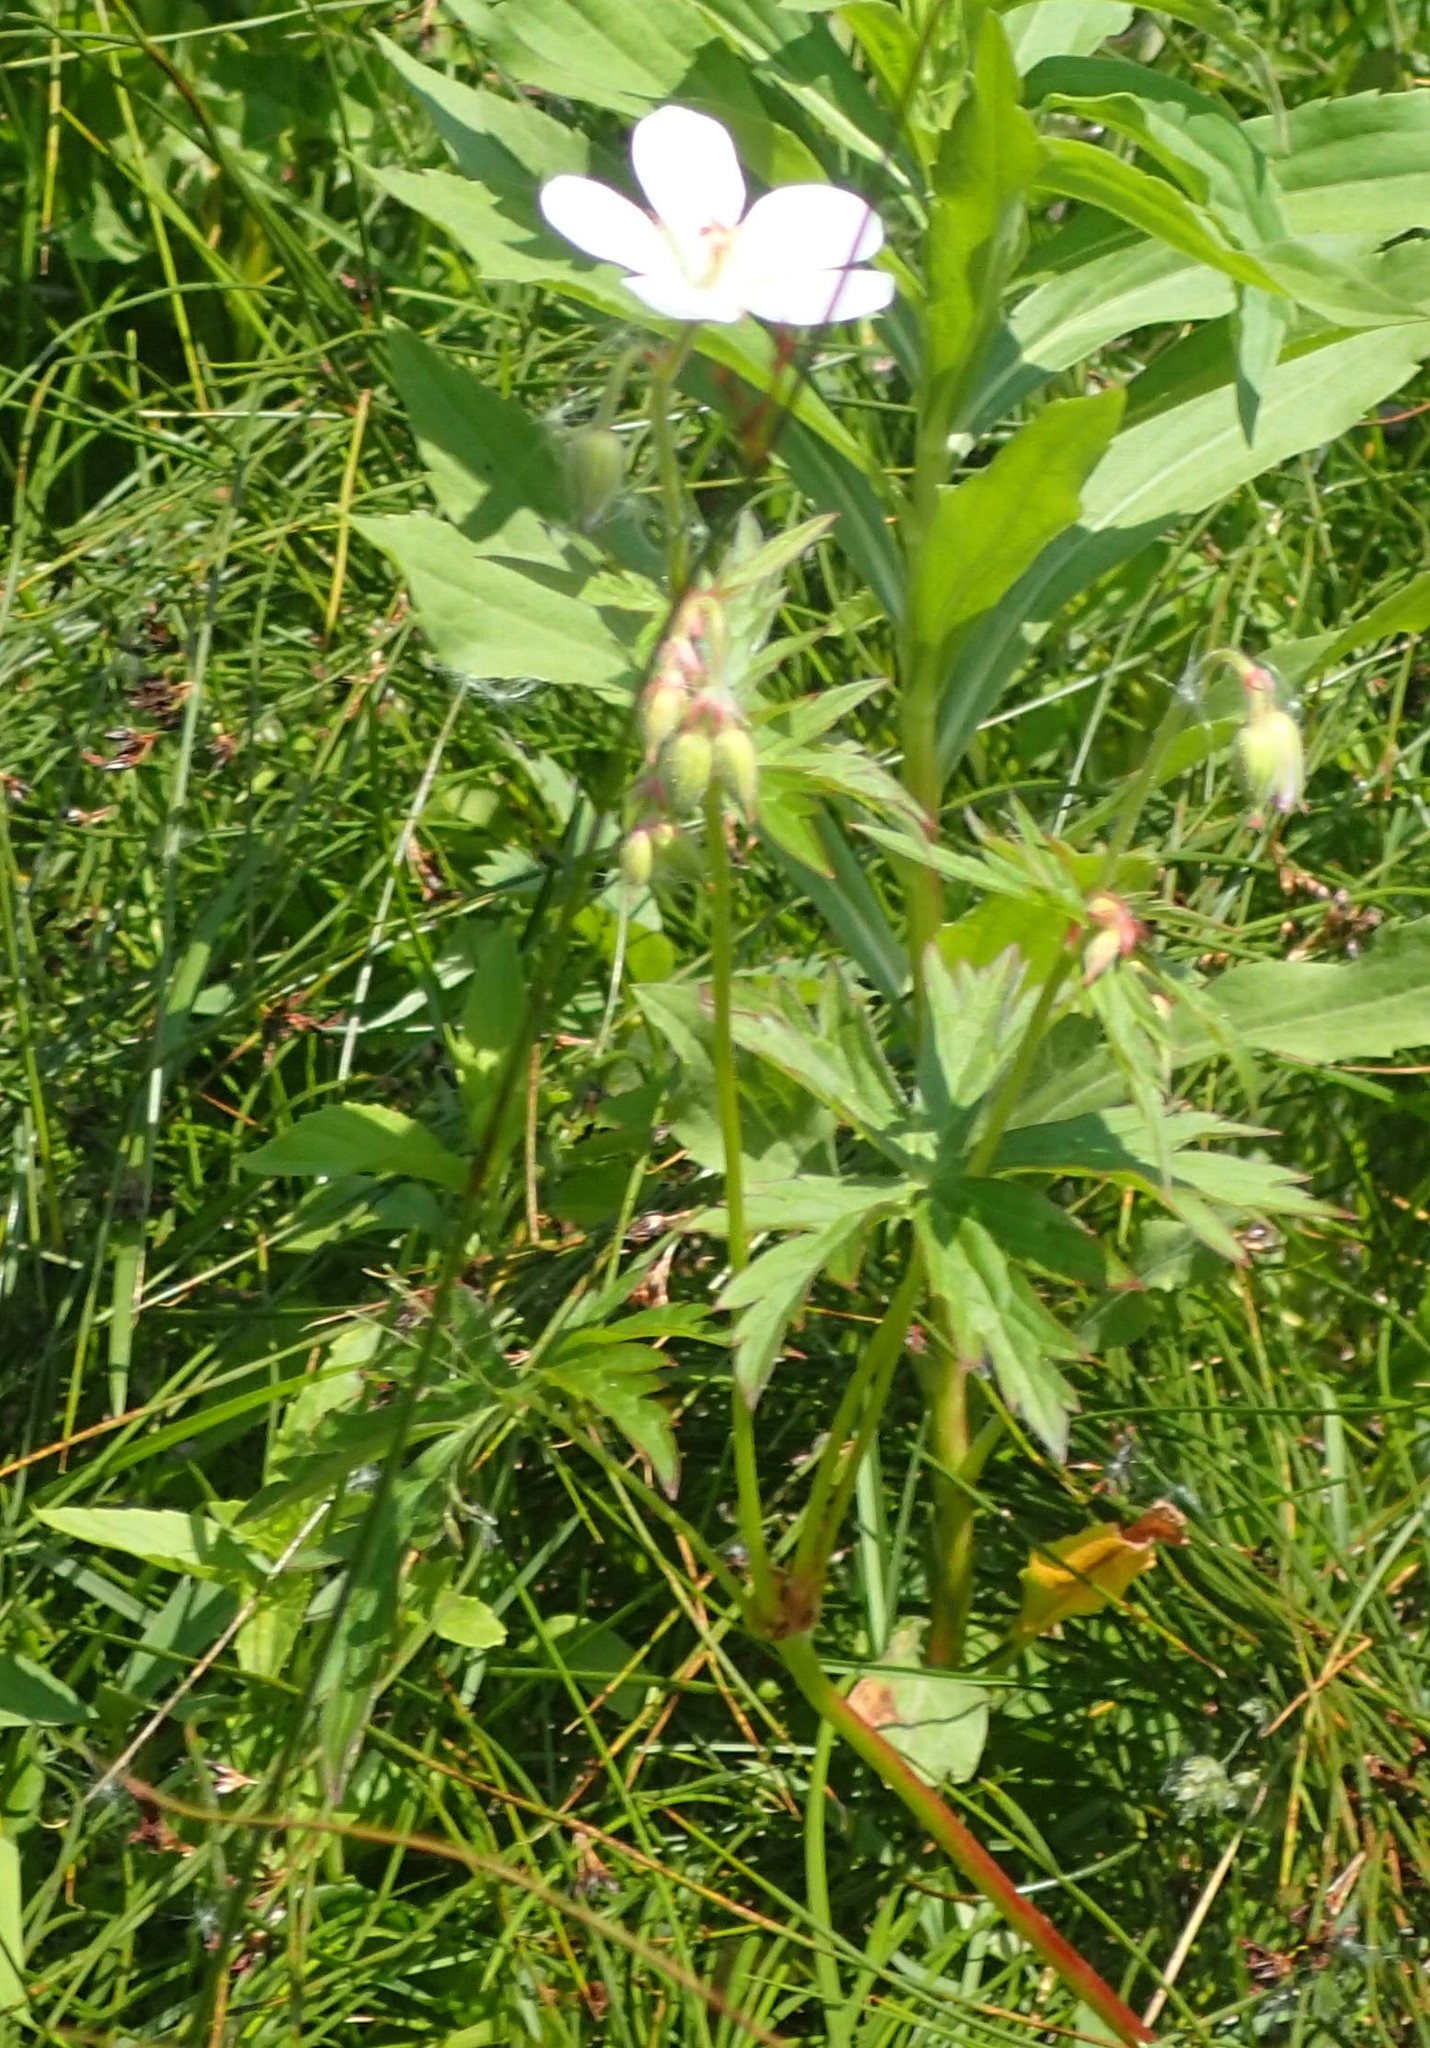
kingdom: Plantae
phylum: Tracheophyta
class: Magnoliopsida
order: Geraniales
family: Geraniaceae
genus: Geranium
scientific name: Geranium richardsonii
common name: Richardson's crane's-bill
